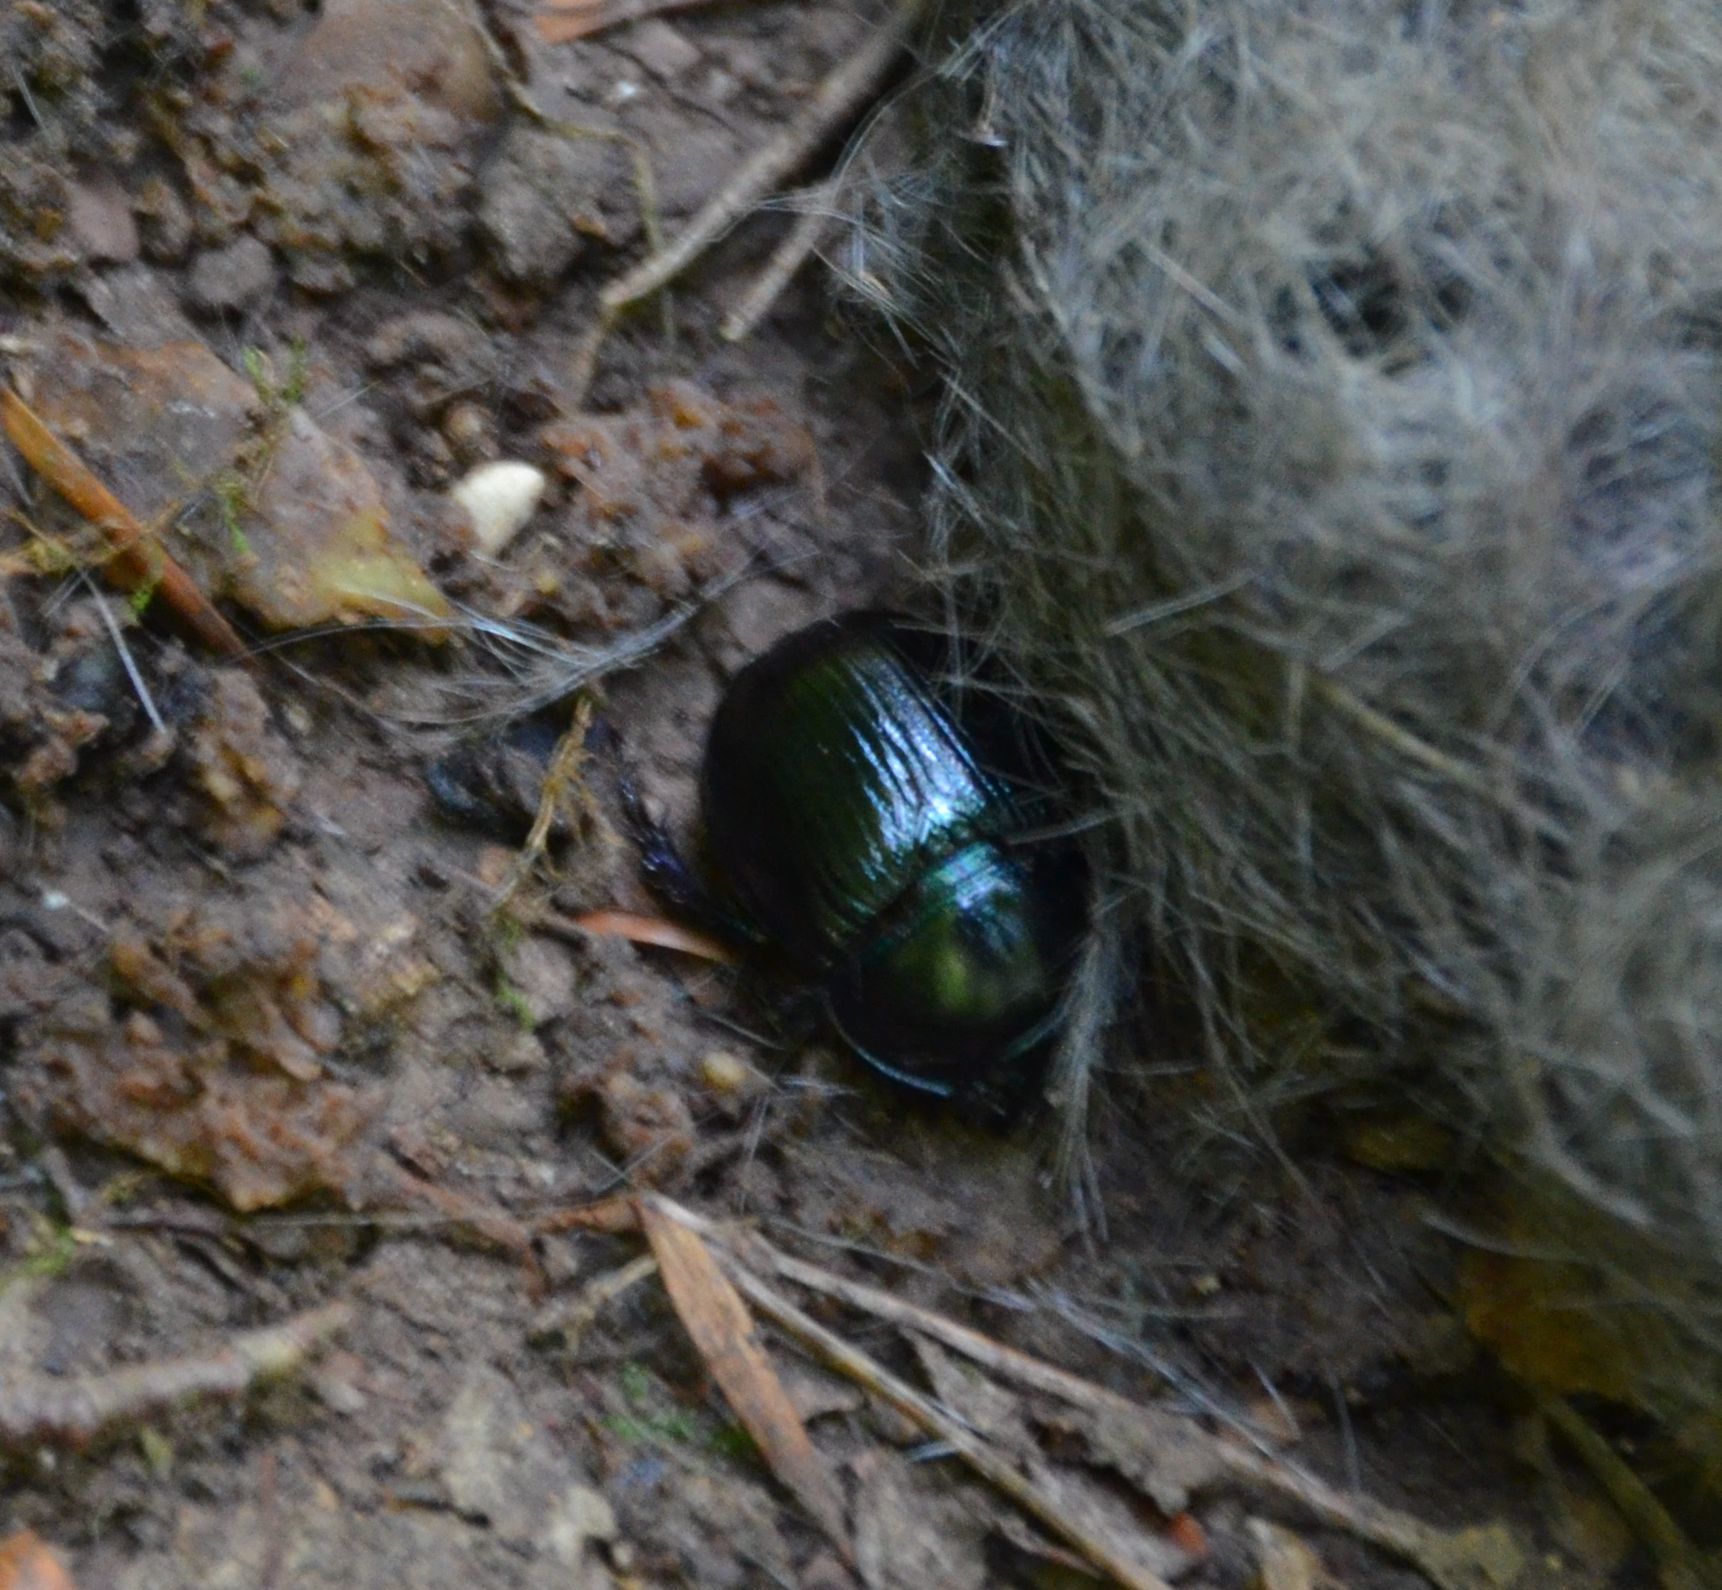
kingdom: Animalia
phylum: Arthropoda
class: Insecta
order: Coleoptera
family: Geotrupidae
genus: Anoplotrupes
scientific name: Anoplotrupes stercorosus
